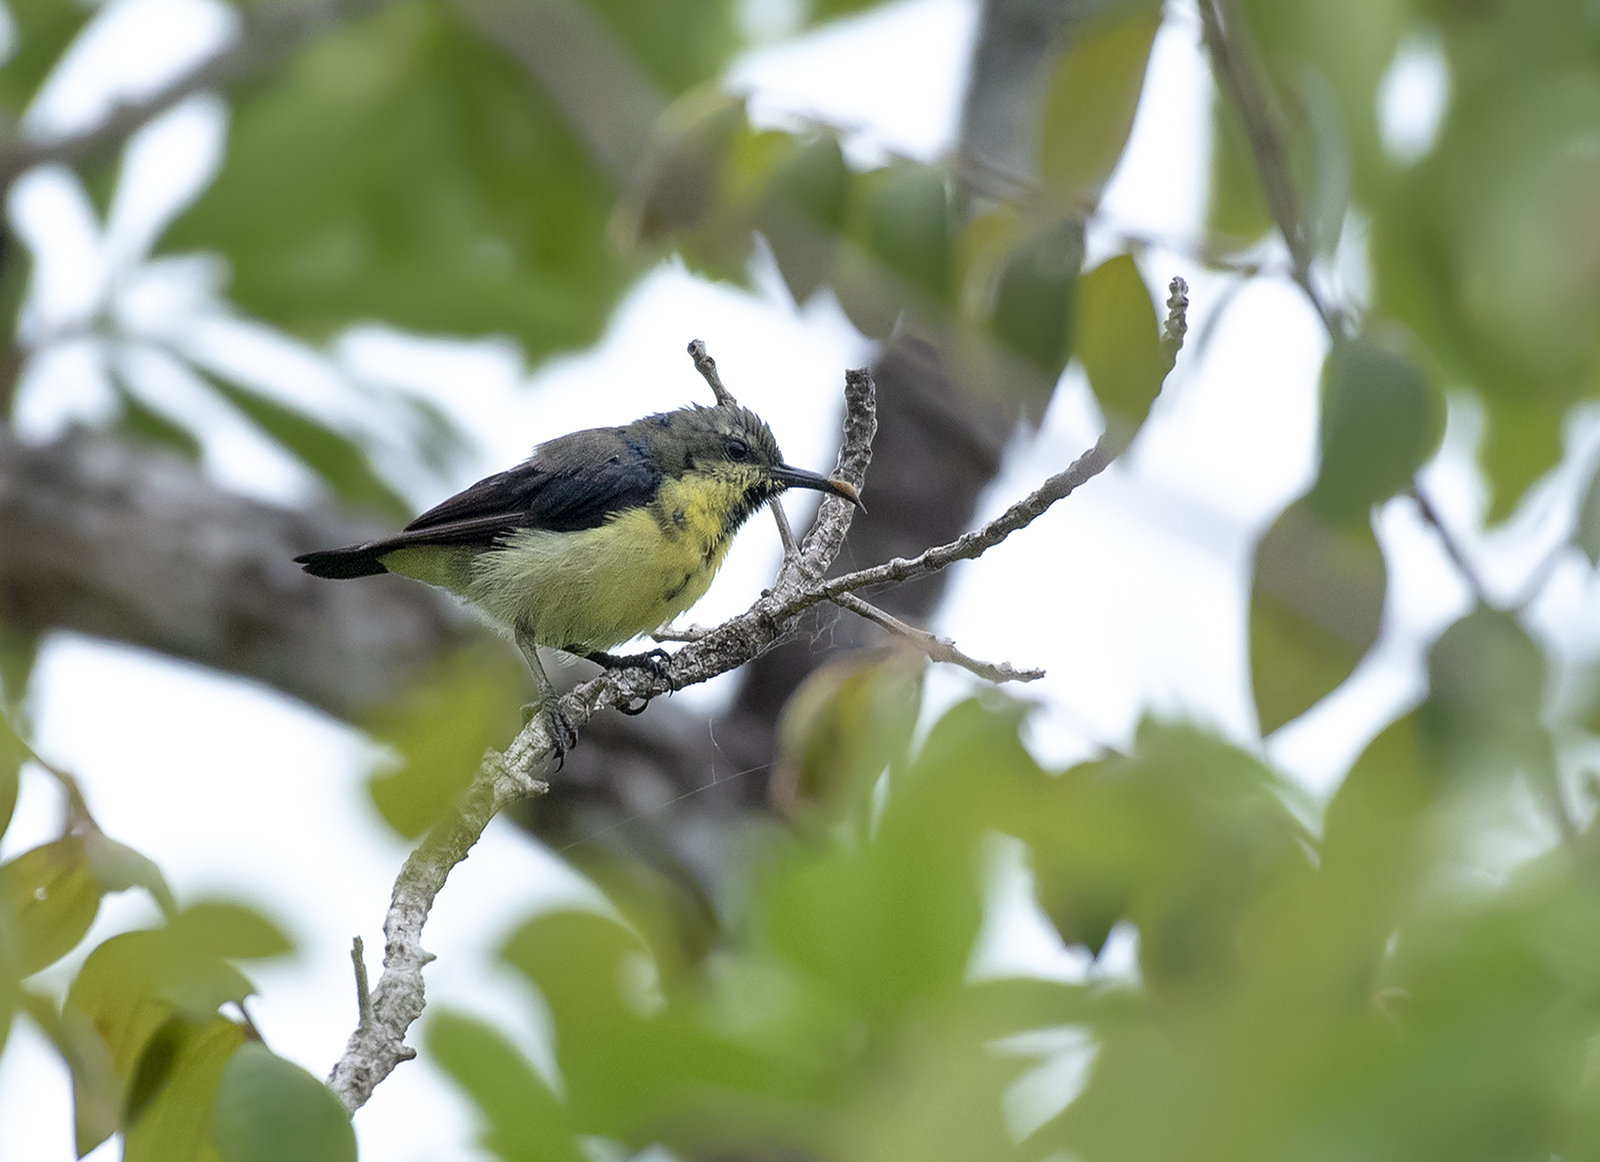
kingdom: Animalia
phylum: Chordata
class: Aves
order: Passeriformes
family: Nectariniidae
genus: Cinnyris
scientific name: Cinnyris asiaticus
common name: Purple sunbird
